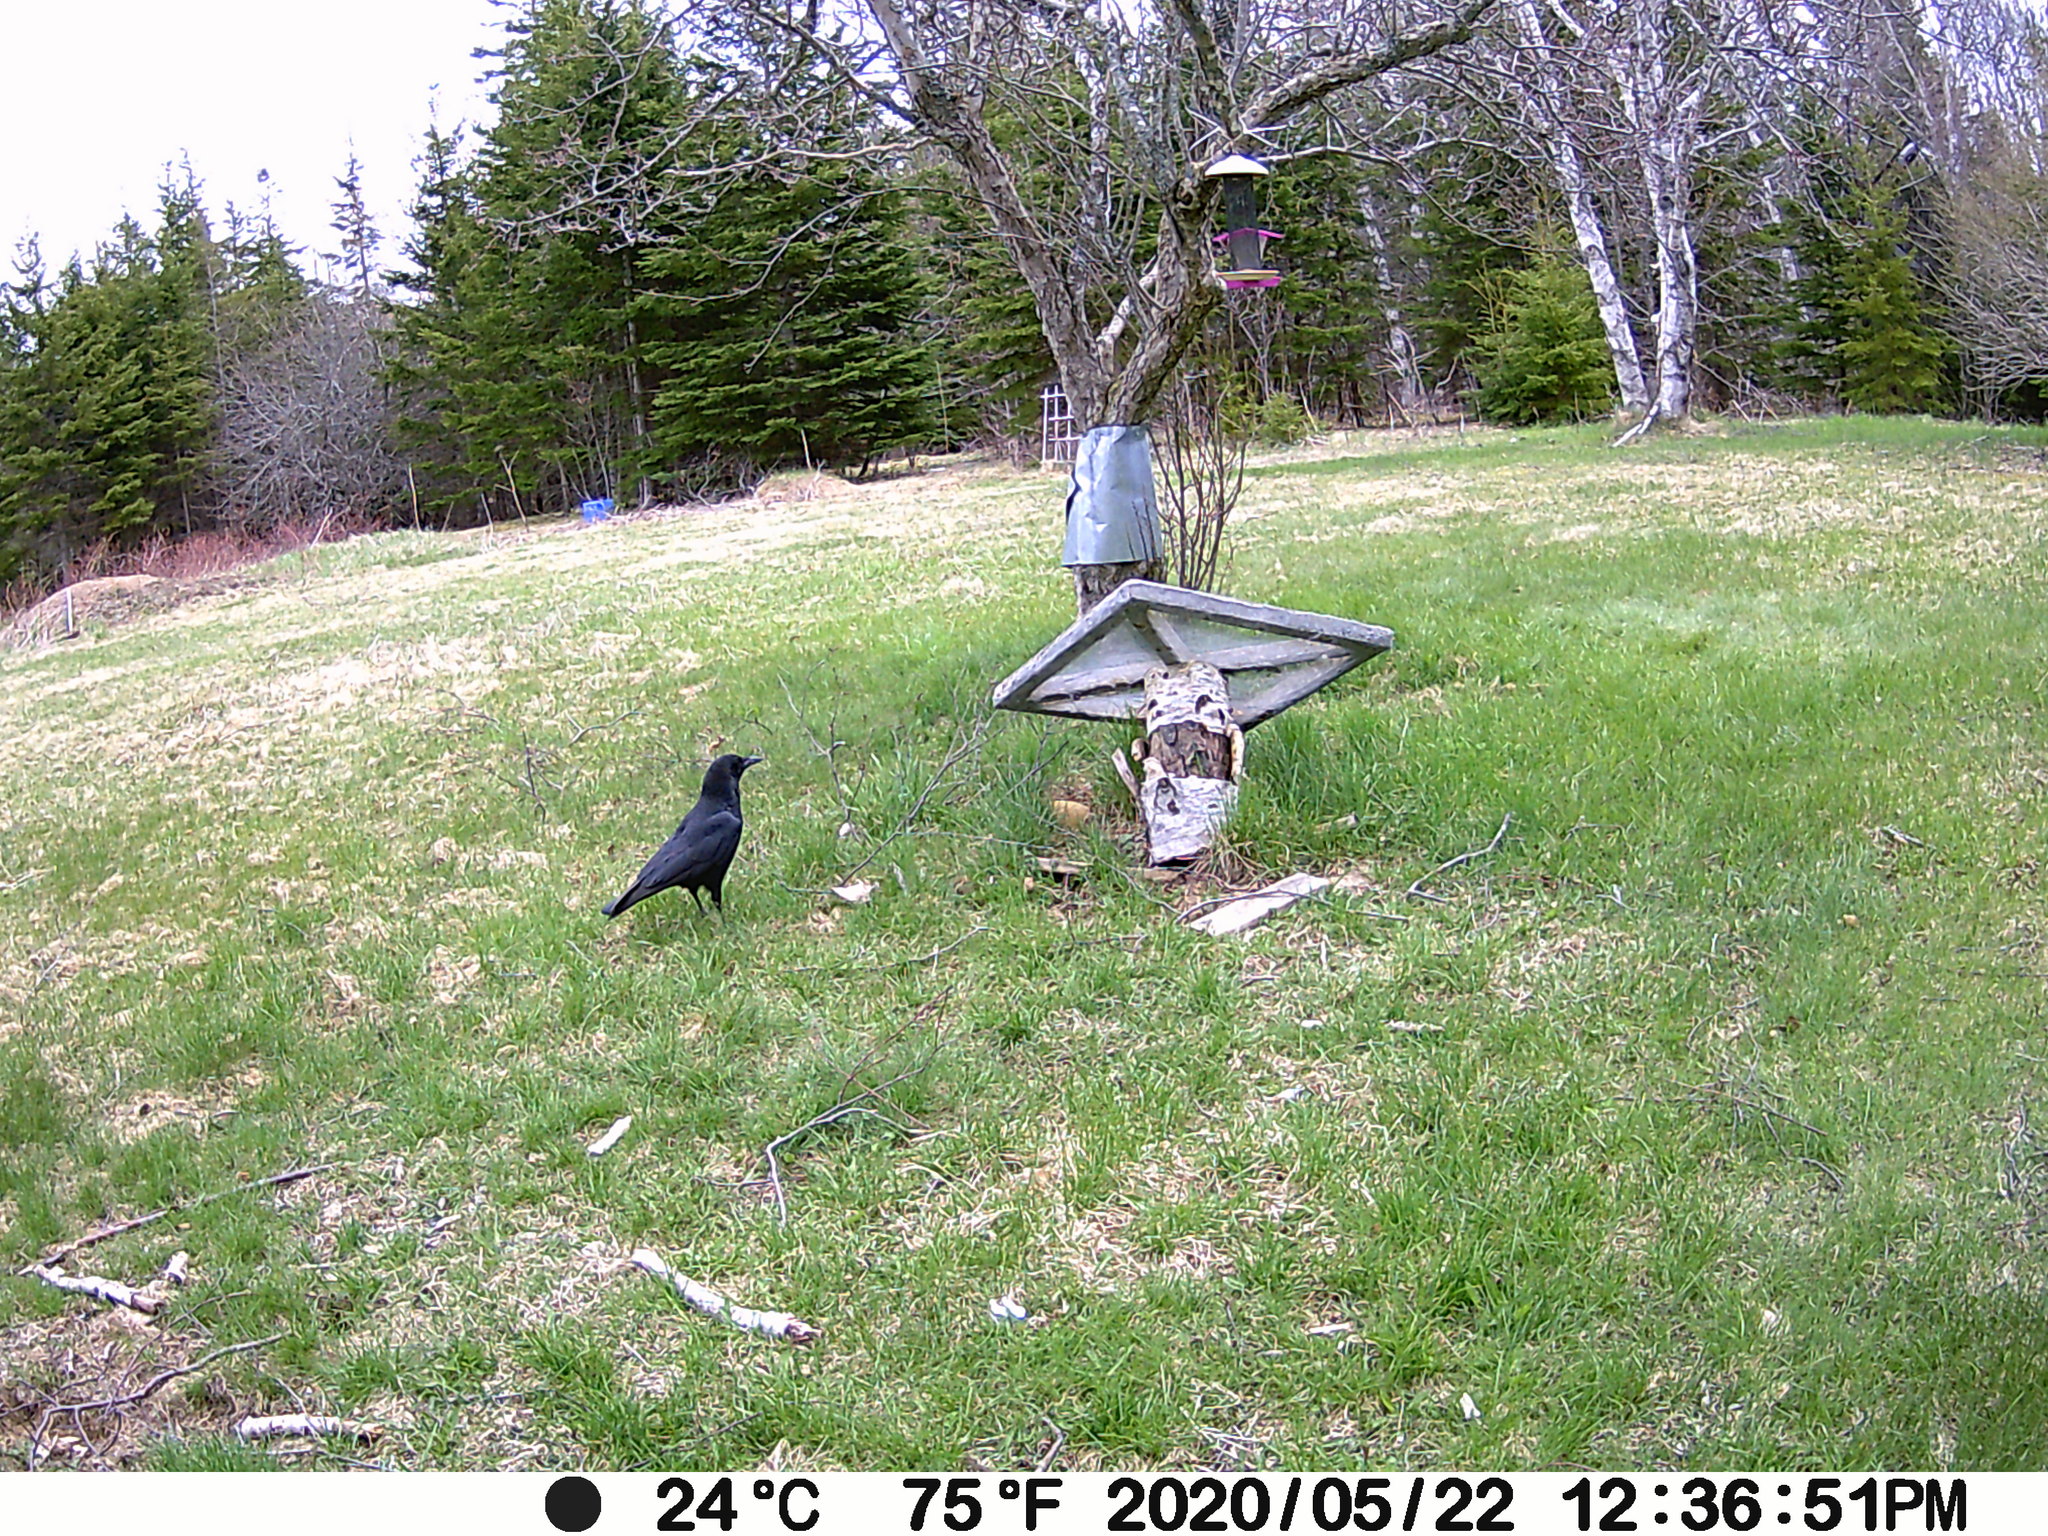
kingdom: Animalia
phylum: Chordata
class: Aves
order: Passeriformes
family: Corvidae
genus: Corvus
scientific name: Corvus brachyrhynchos
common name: American crow
